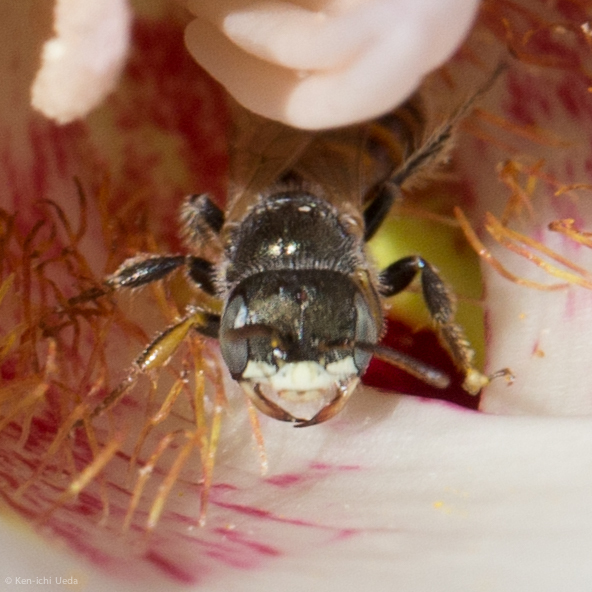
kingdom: Animalia
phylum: Arthropoda
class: Insecta
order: Hymenoptera
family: Andrenidae
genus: Perdita
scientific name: Perdita californica
